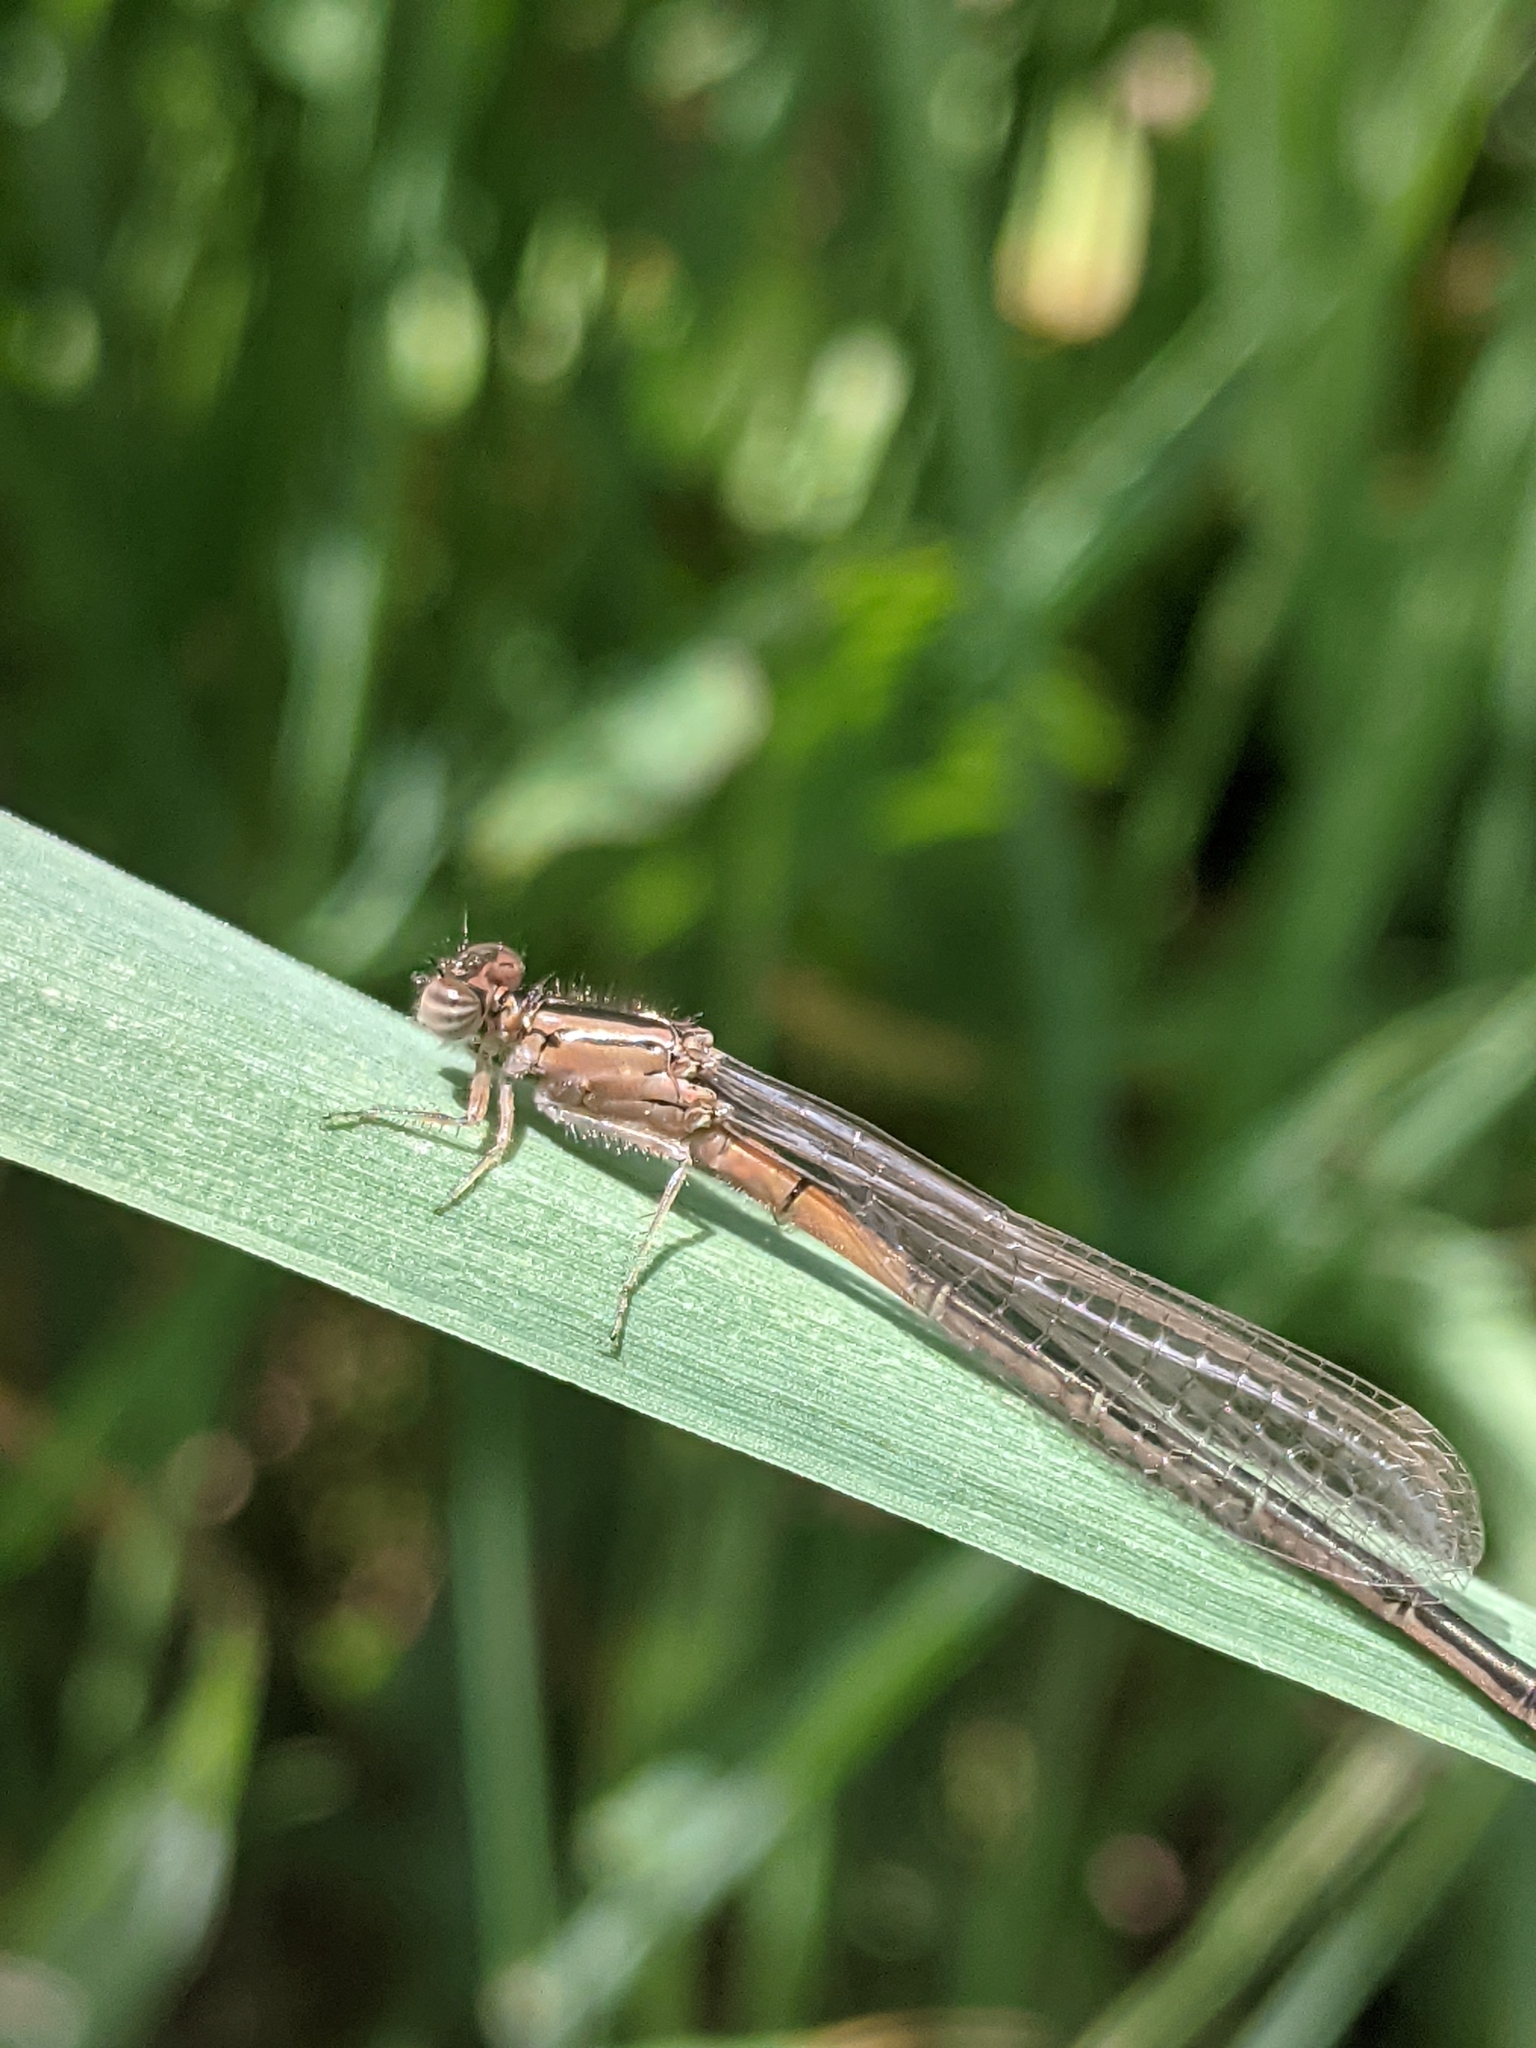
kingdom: Animalia
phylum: Arthropoda
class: Insecta
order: Odonata
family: Coenagrionidae
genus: Ischnura
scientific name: Ischnura verticalis
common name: Eastern forktail
